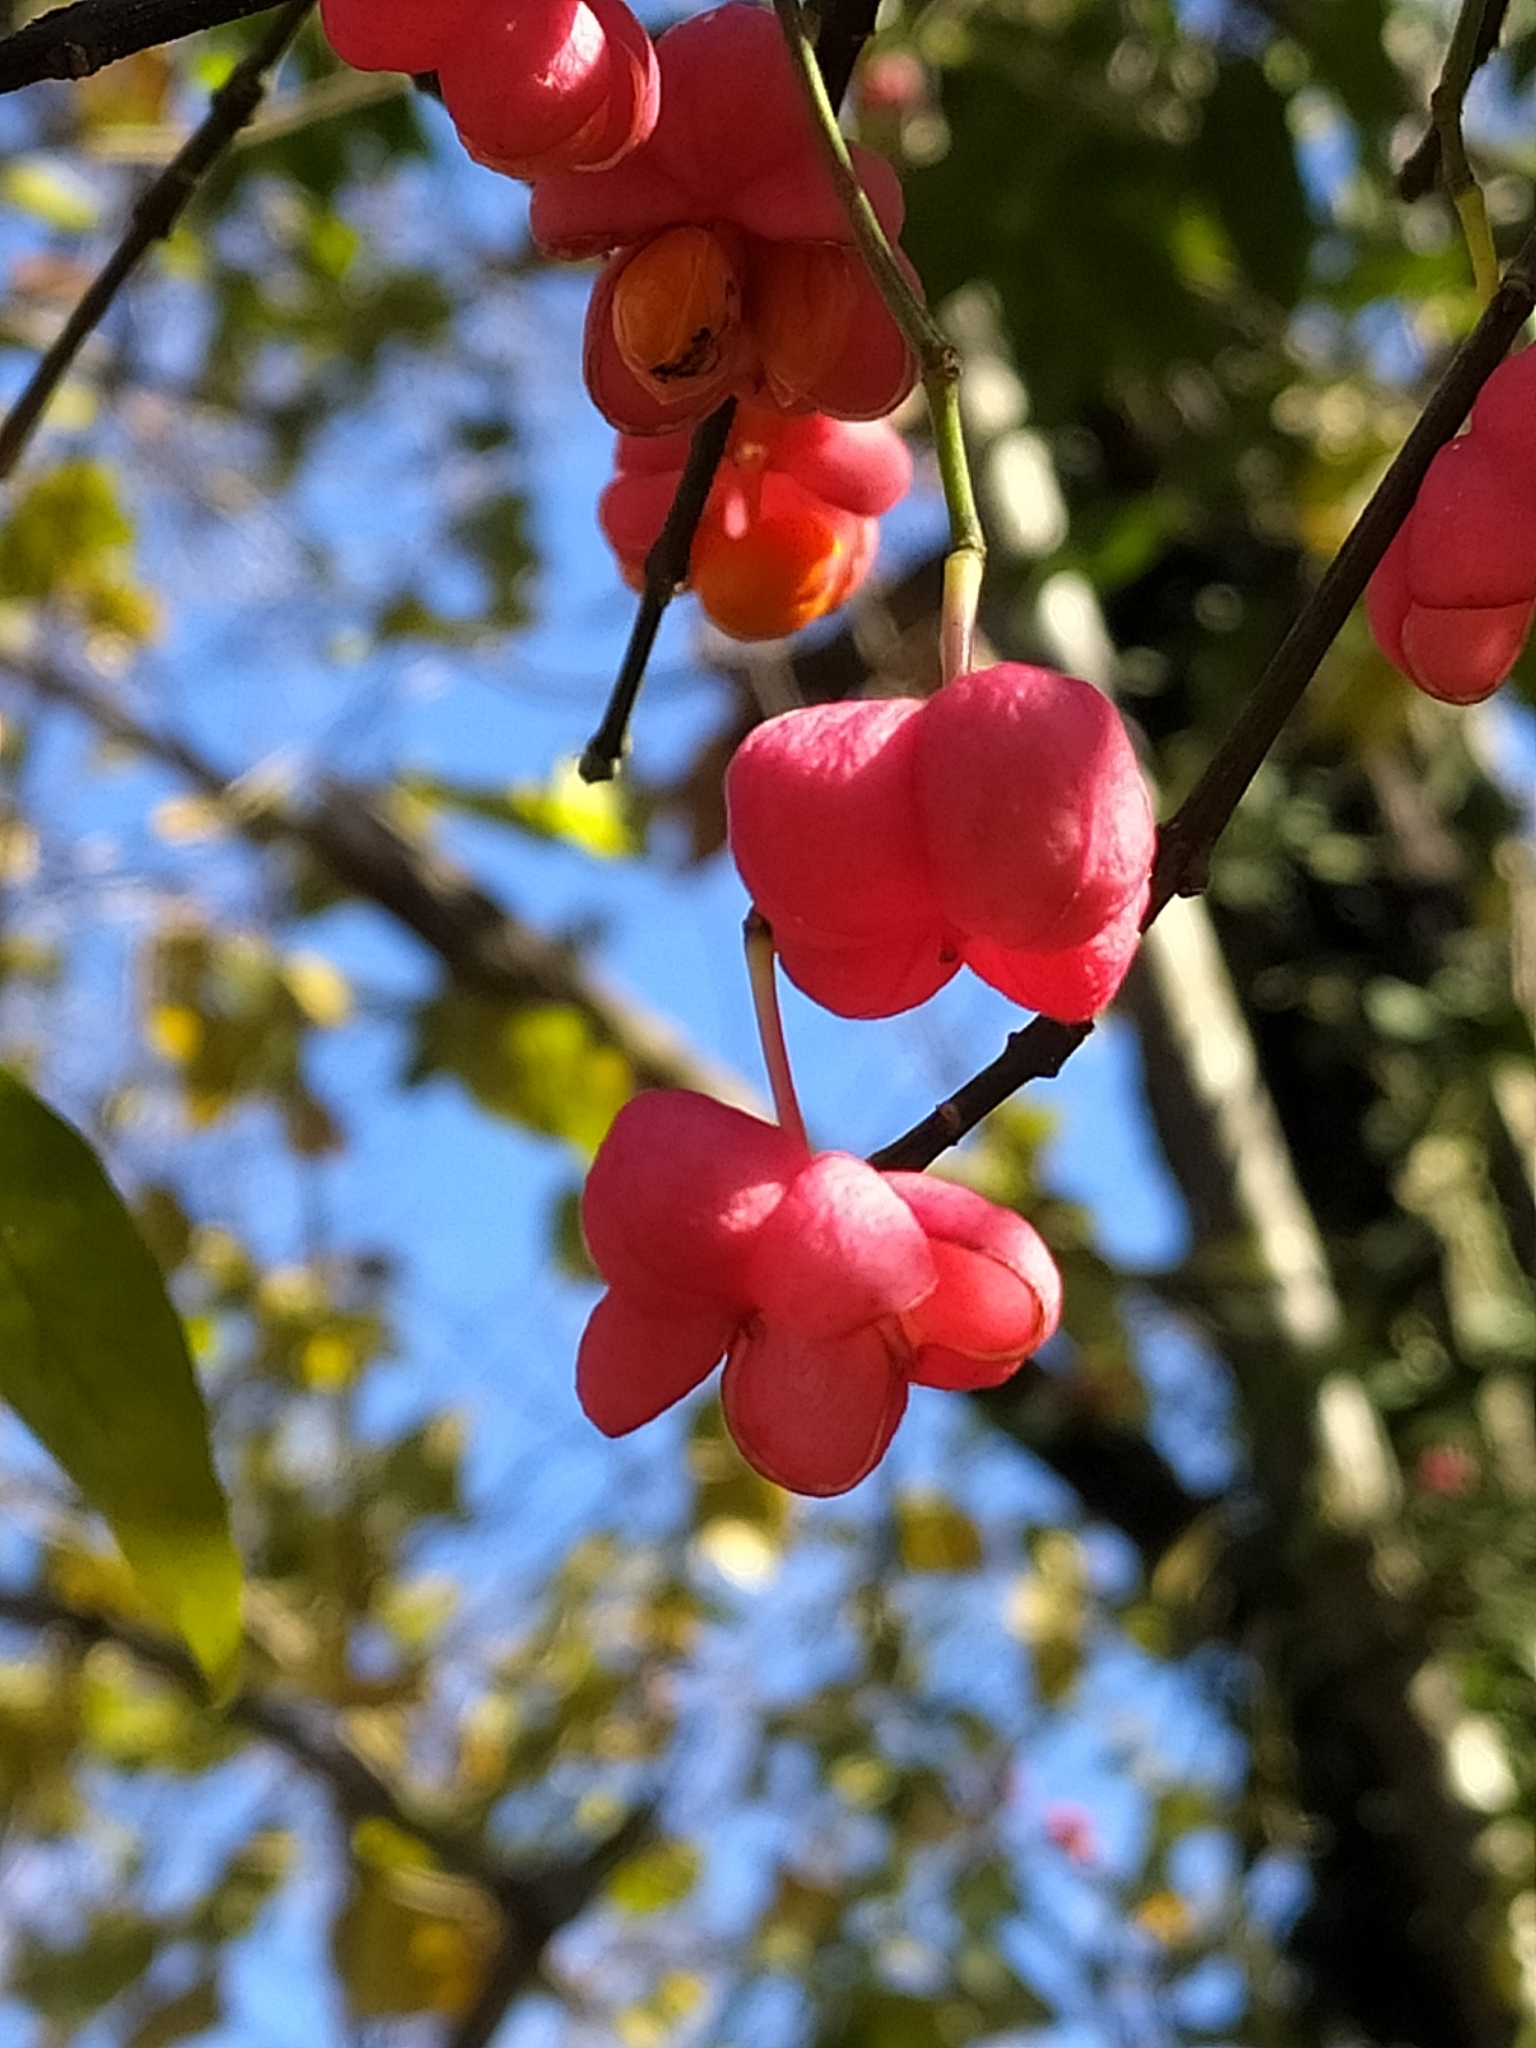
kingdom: Plantae
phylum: Tracheophyta
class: Magnoliopsida
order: Celastrales
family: Celastraceae
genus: Euonymus
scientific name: Euonymus europaeus
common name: Spindle
